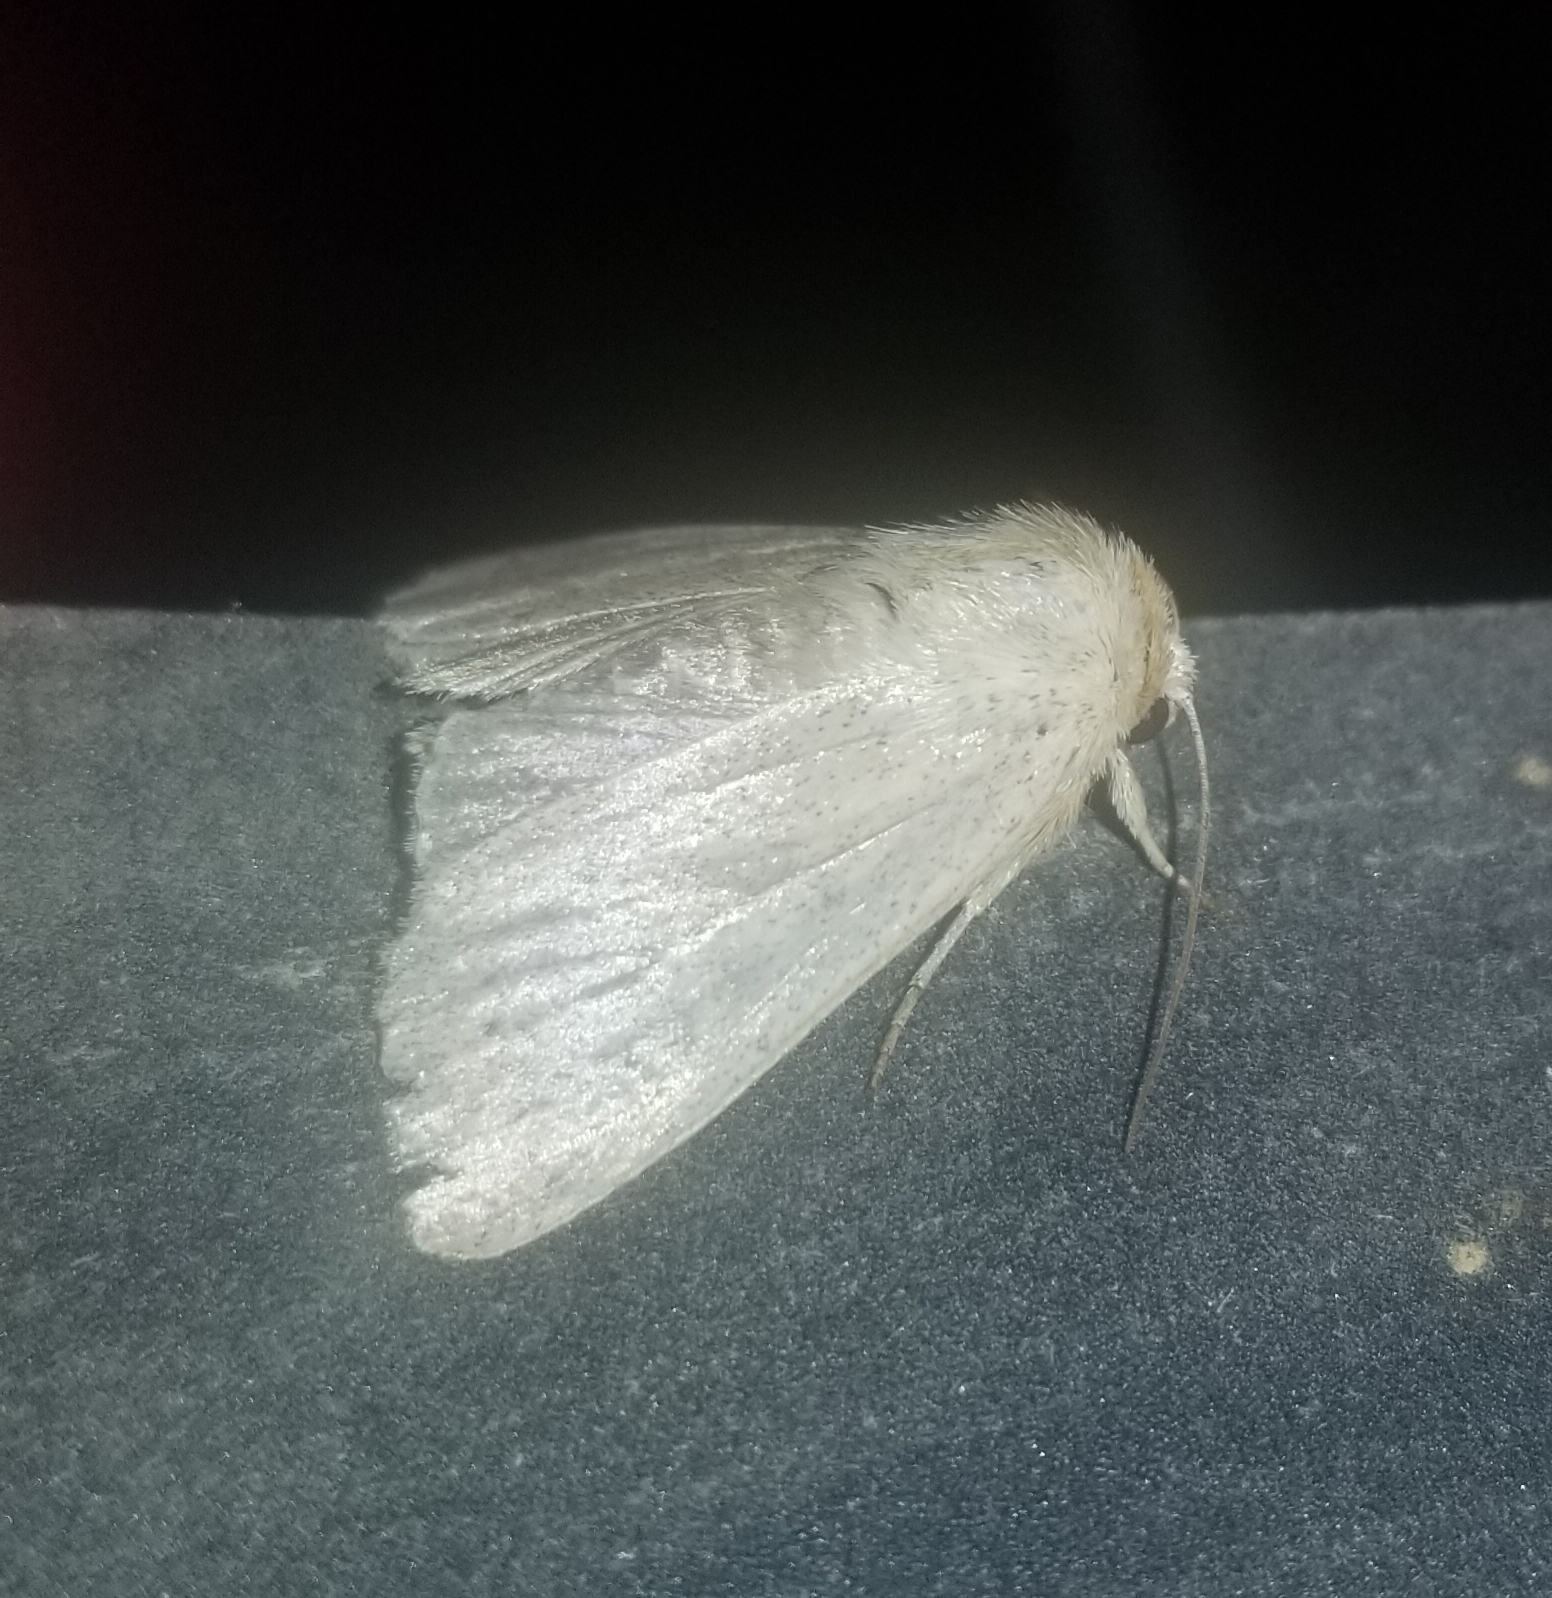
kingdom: Animalia
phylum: Arthropoda
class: Insecta
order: Lepidoptera
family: Geometridae
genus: Ennomos
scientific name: Ennomos subsignaria
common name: Elm spanworm
